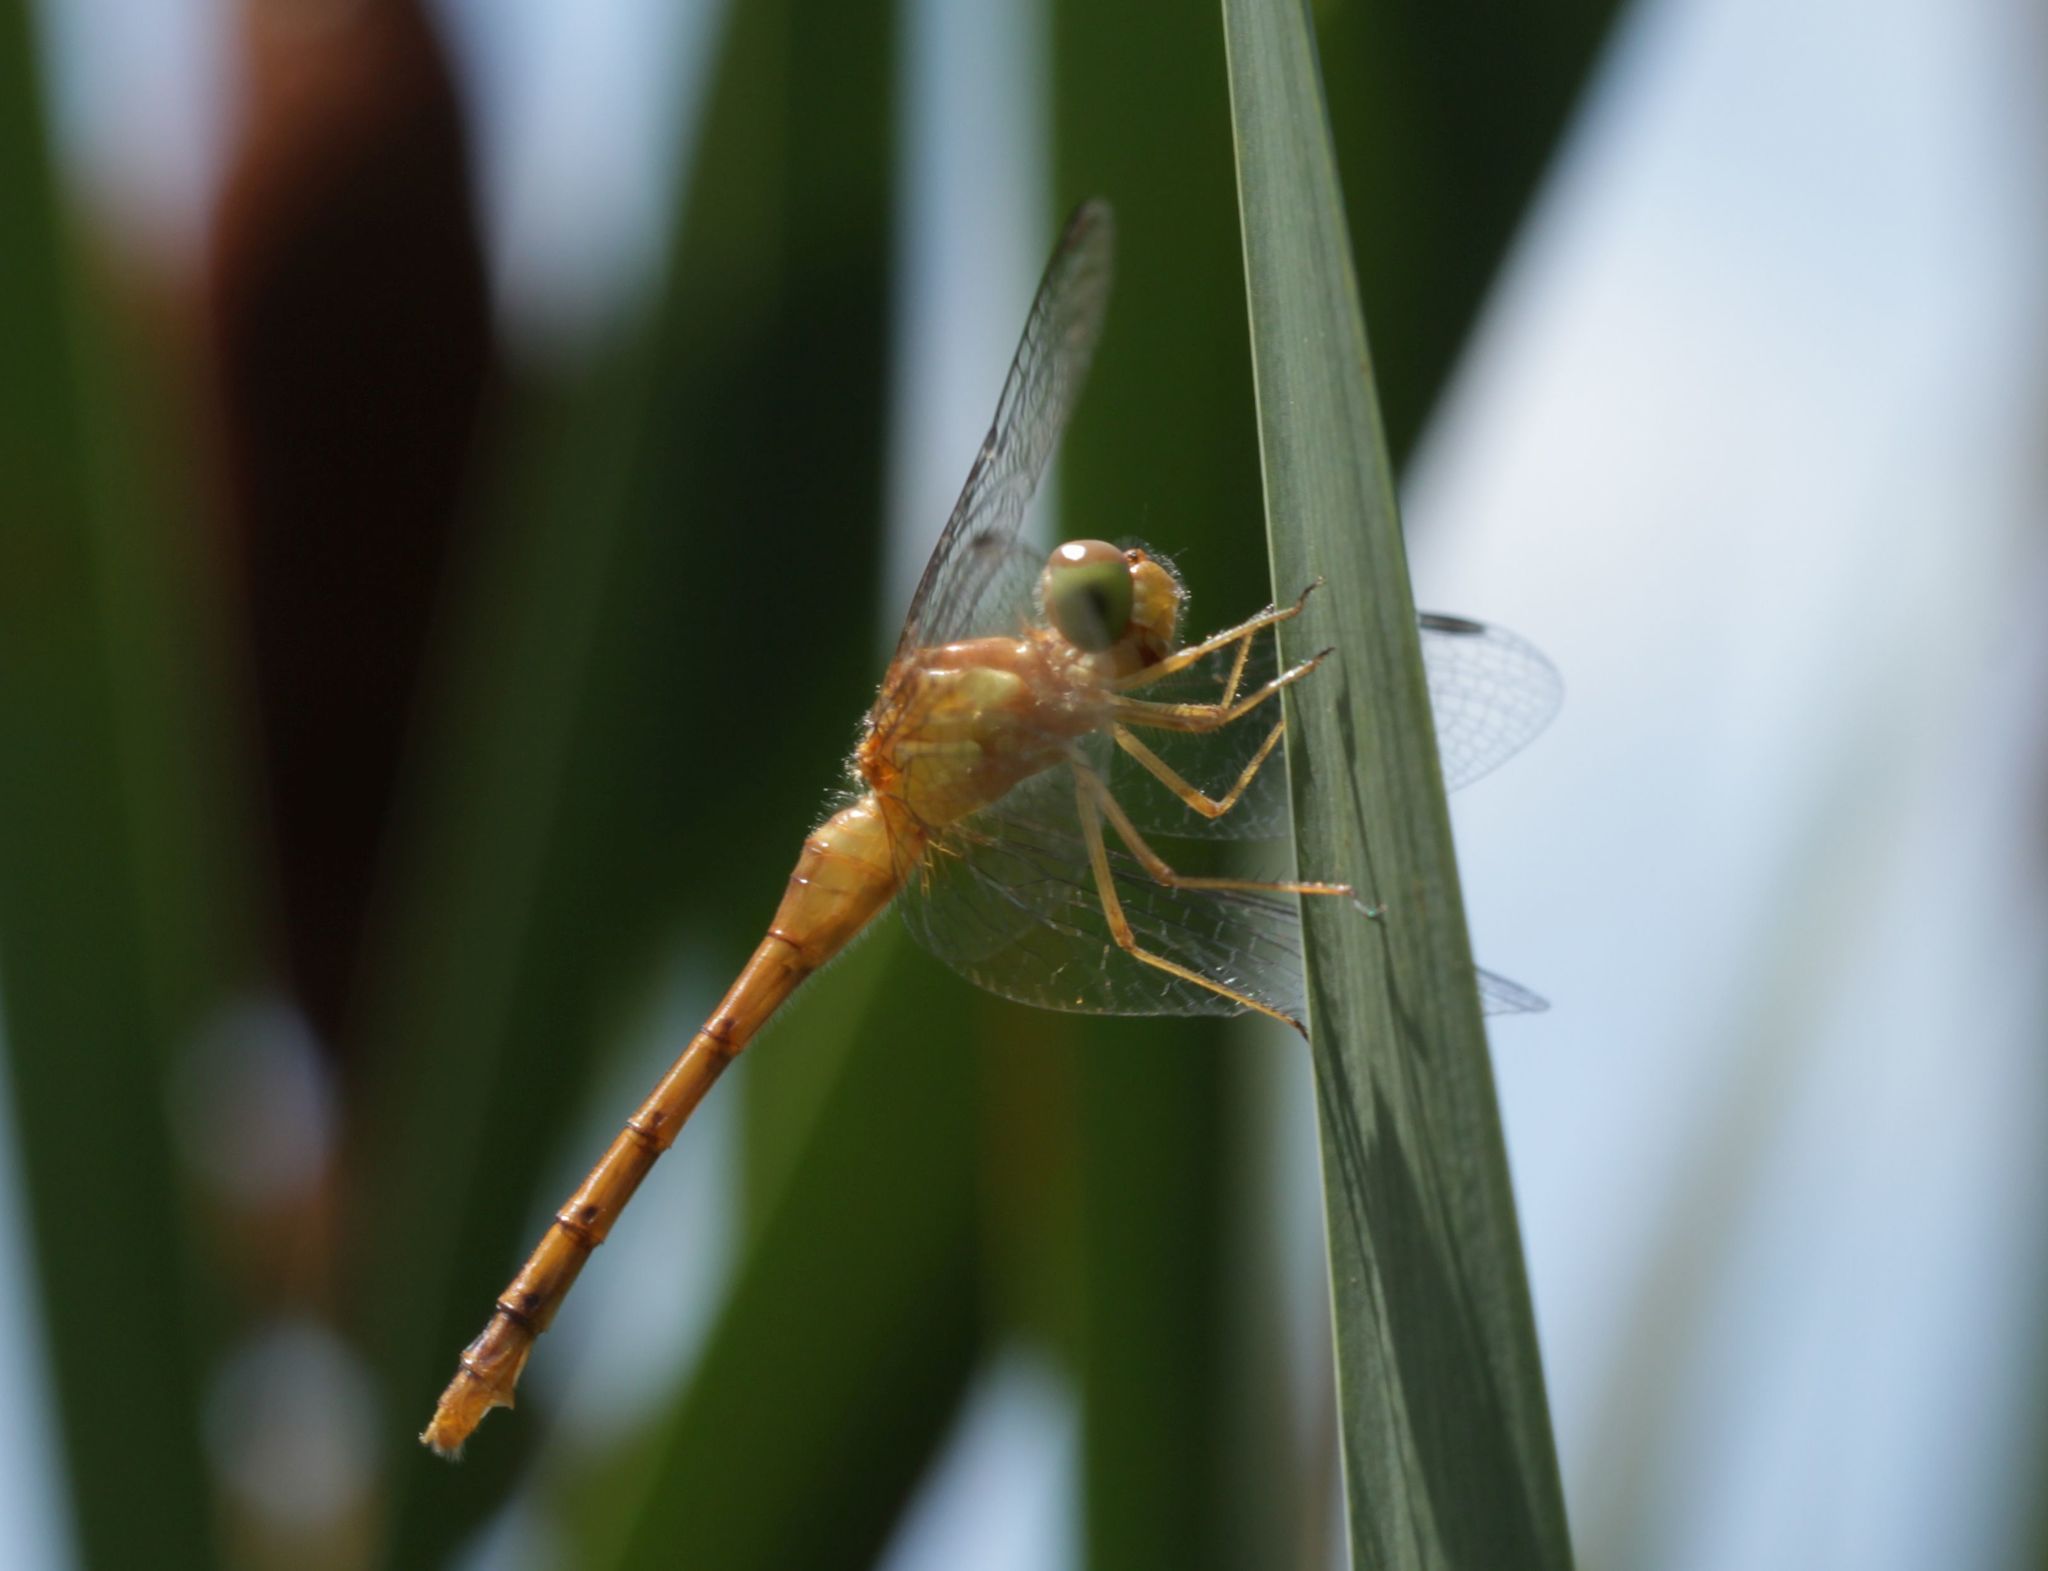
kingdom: Animalia
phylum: Arthropoda
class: Insecta
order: Odonata
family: Libellulidae
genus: Sympetrum
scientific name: Sympetrum vicinum
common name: Autumn meadowhawk
